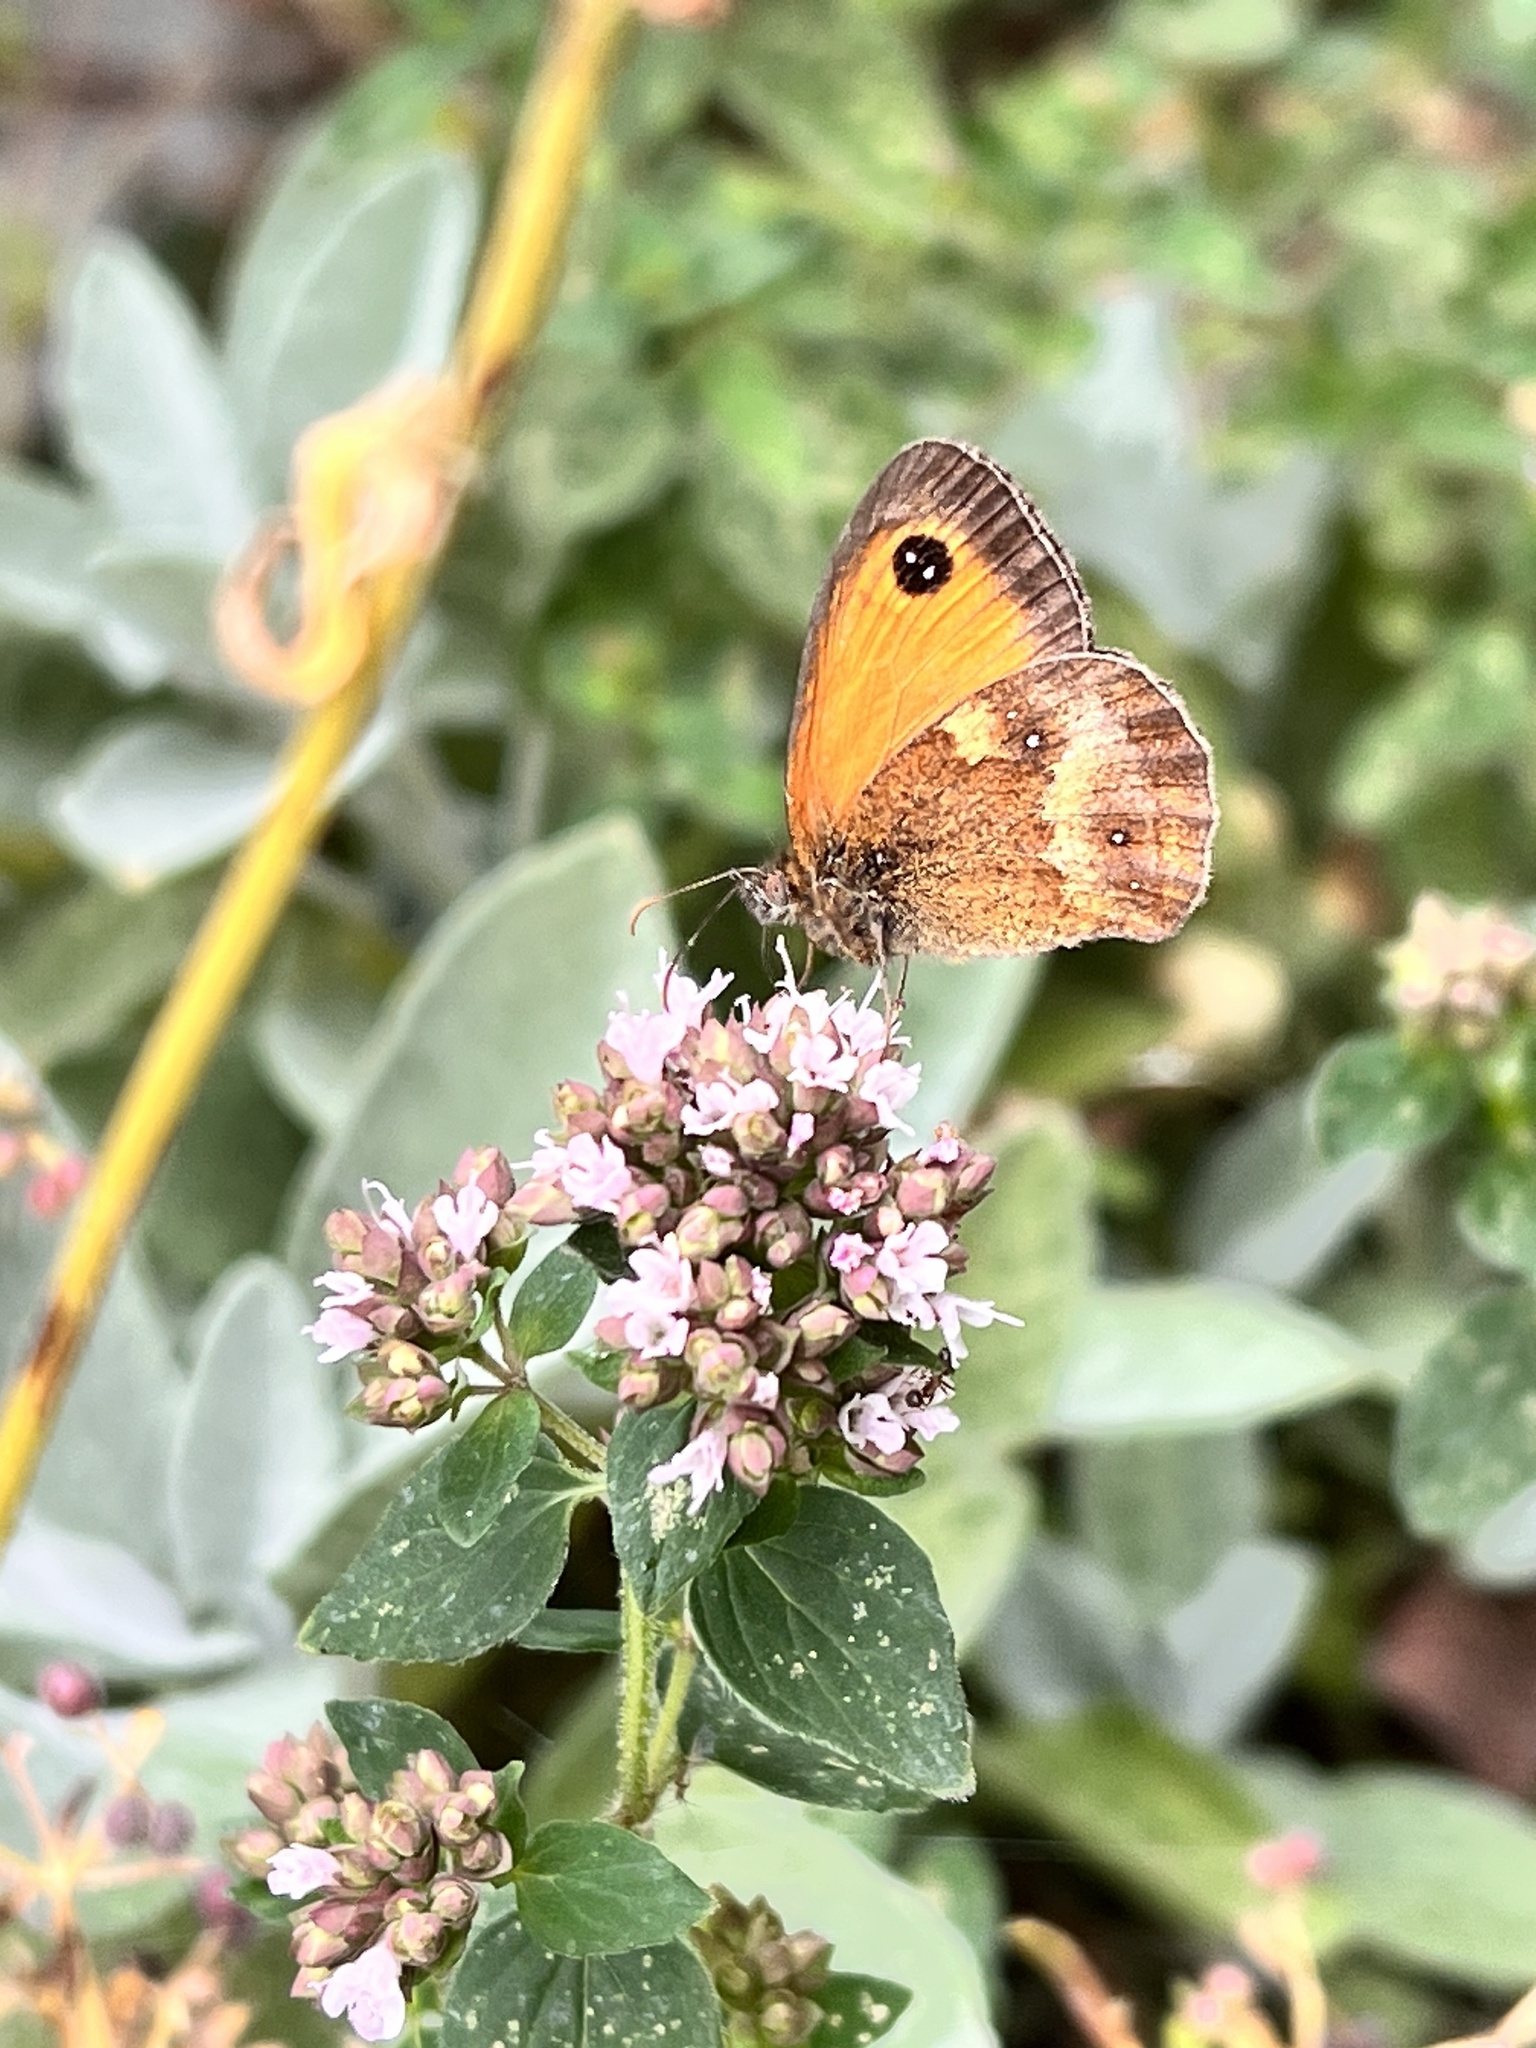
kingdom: Animalia
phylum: Arthropoda
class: Insecta
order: Lepidoptera
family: Nymphalidae
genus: Pyronia
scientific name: Pyronia tithonus
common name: Gatekeeper
